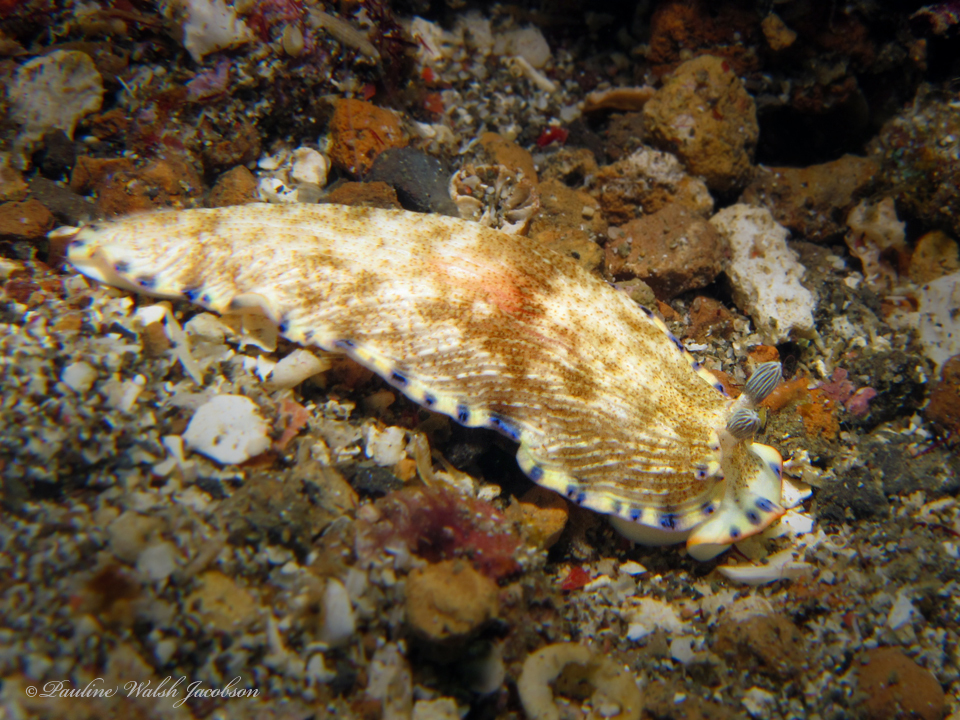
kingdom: Animalia
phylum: Mollusca
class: Gastropoda
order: Nudibranchia
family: Arminidae
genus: Dermatobranchus
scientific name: Dermatobranchus caeruleomaculatus
